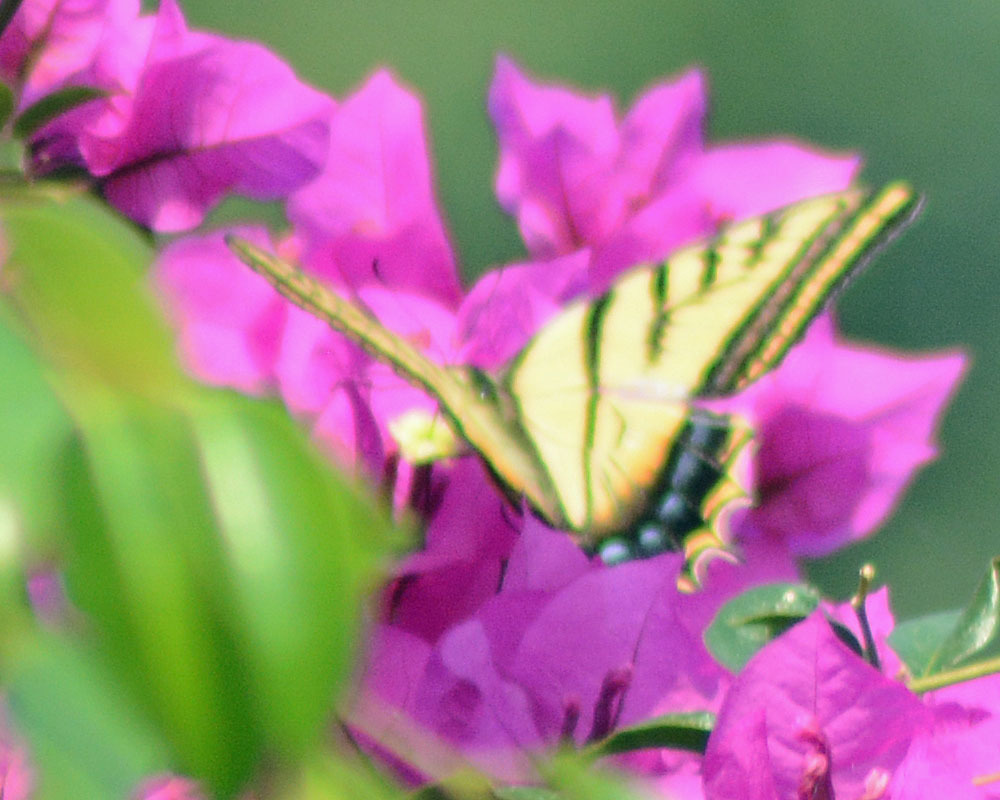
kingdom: Animalia
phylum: Arthropoda
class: Insecta
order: Lepidoptera
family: Papilionidae
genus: Papilio
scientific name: Papilio multicaudata
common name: Two-tailed tiger swallowtail
